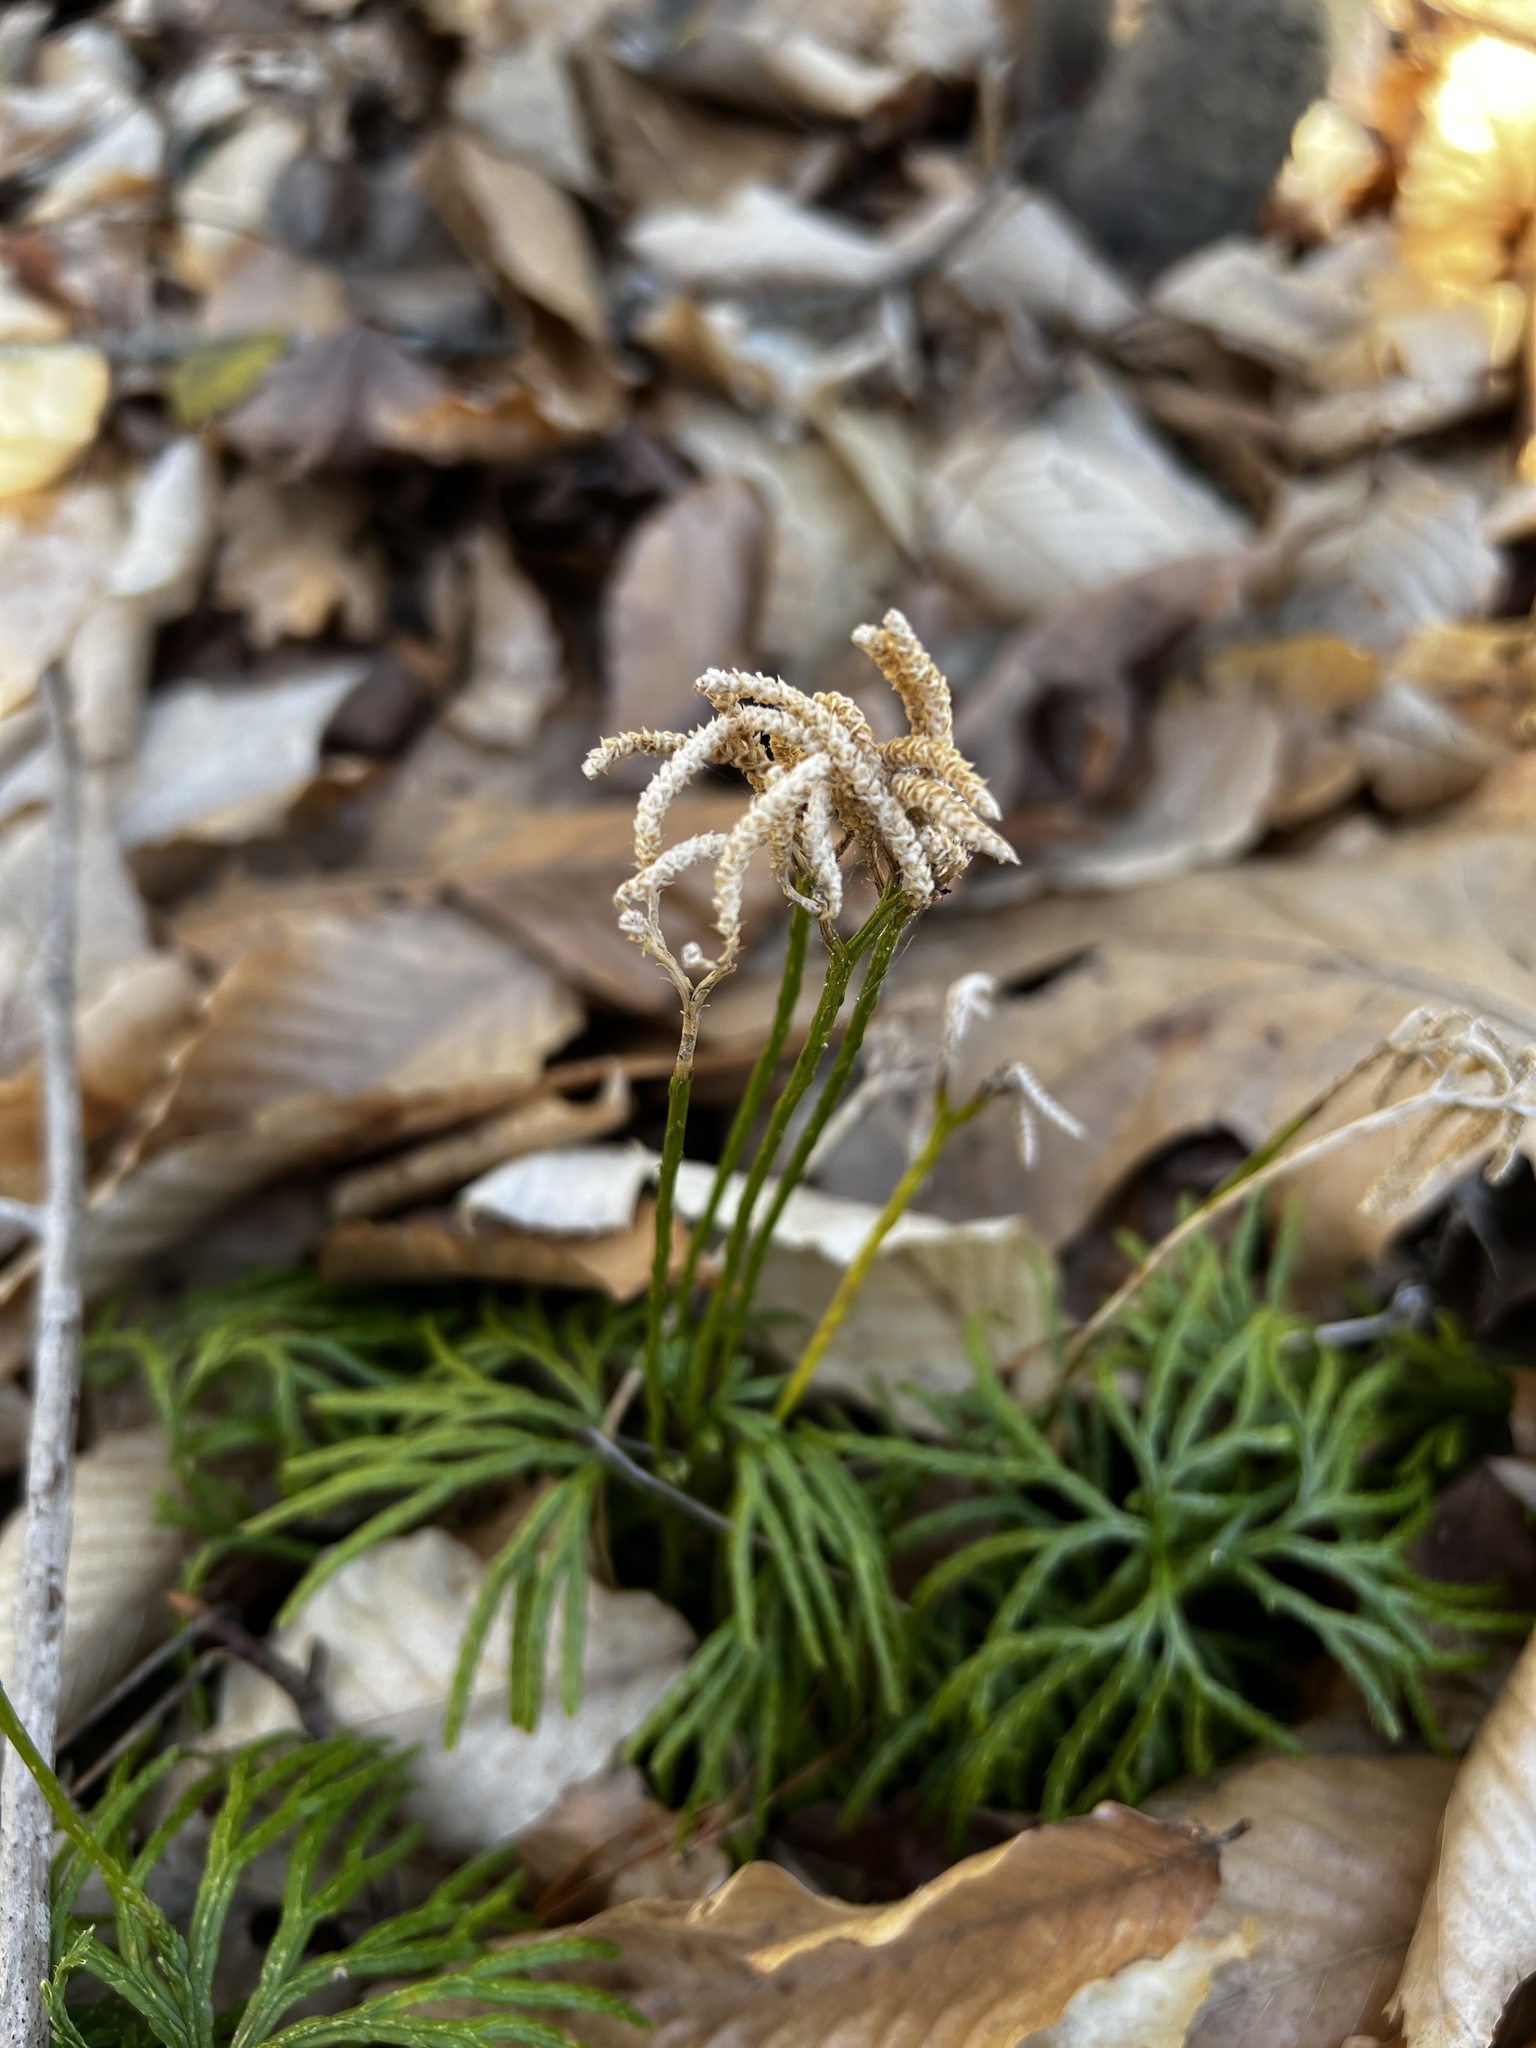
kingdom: Plantae
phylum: Tracheophyta
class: Lycopodiopsida
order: Lycopodiales
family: Lycopodiaceae
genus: Diphasiastrum
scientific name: Diphasiastrum digitatum
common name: Southern running-pine
